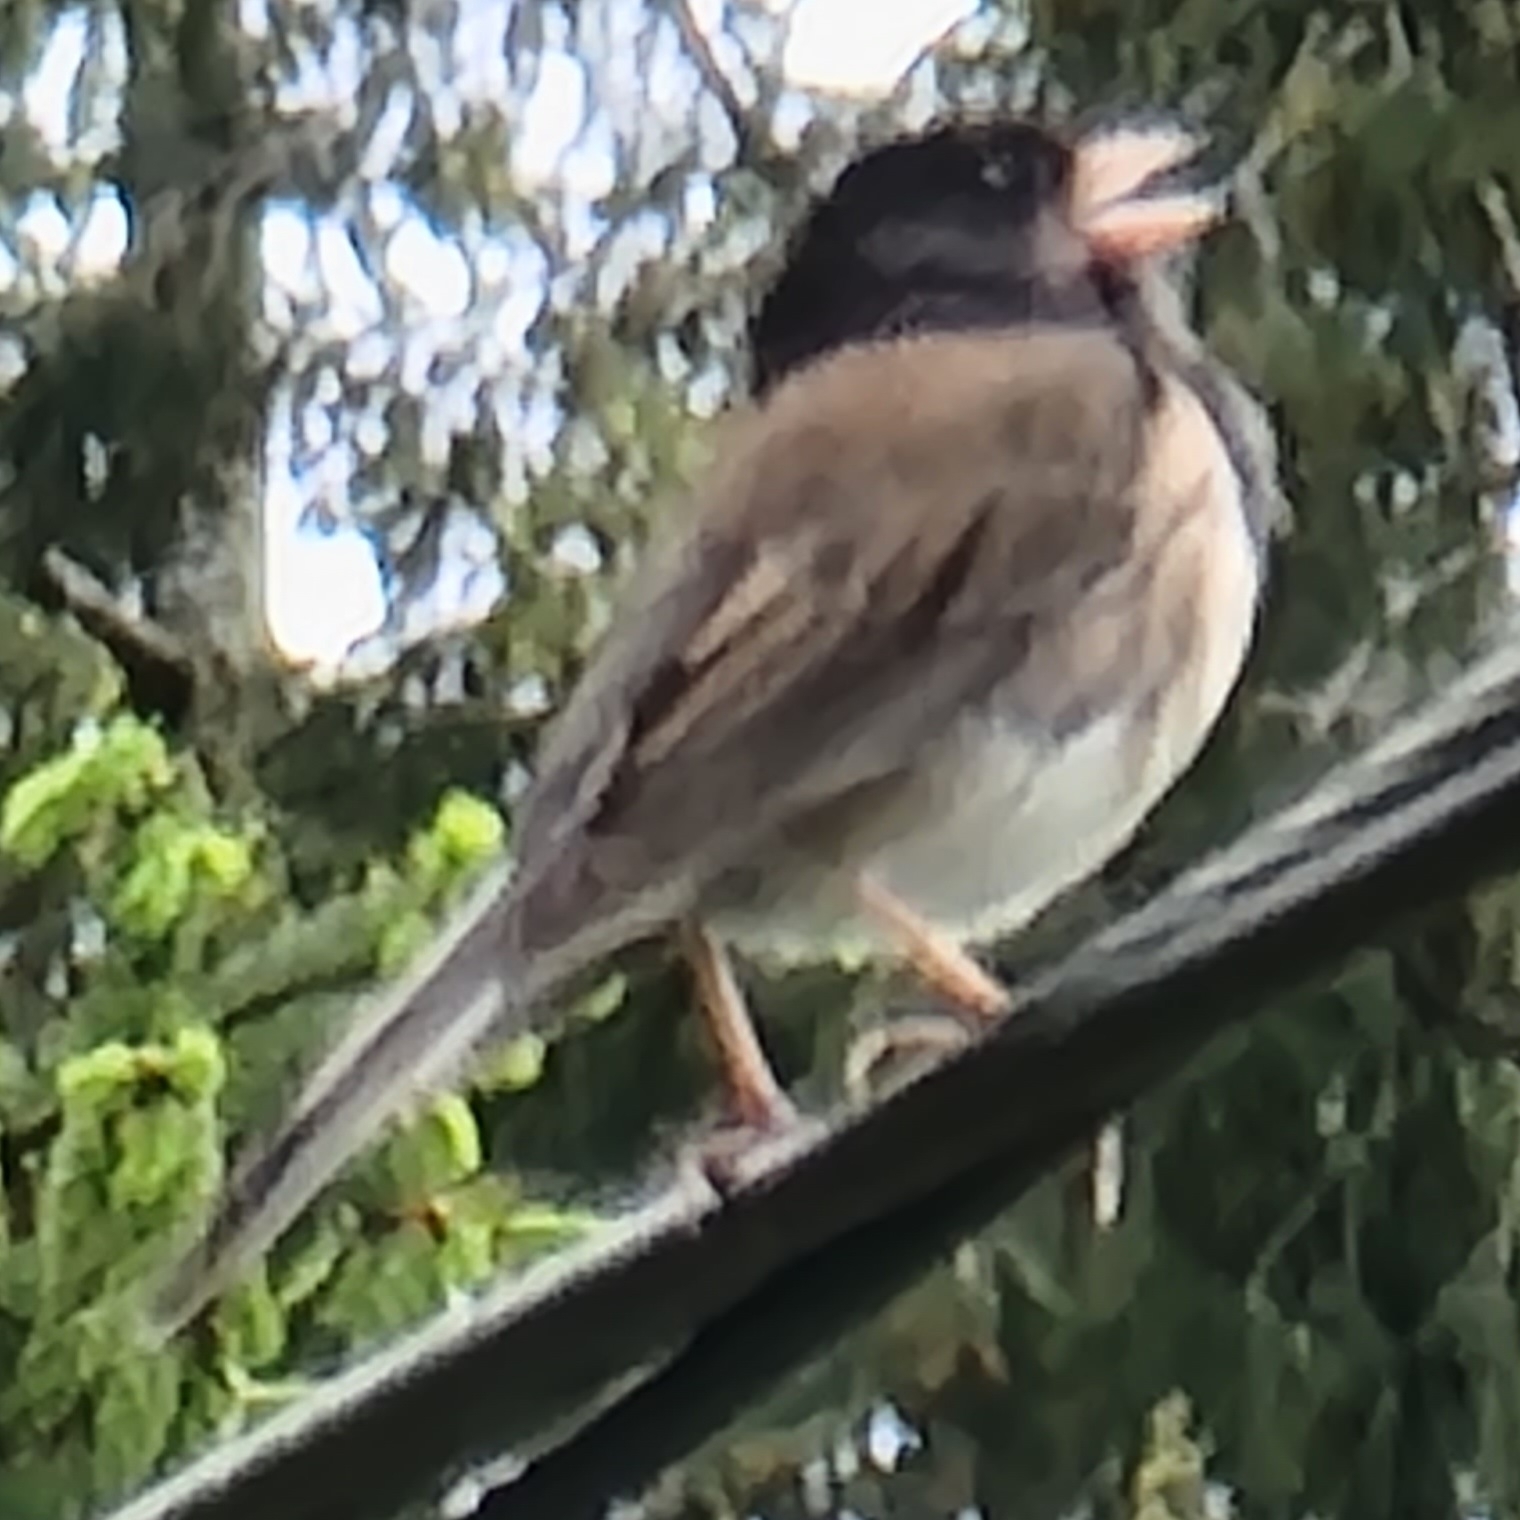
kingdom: Animalia
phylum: Chordata
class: Aves
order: Passeriformes
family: Passerellidae
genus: Junco
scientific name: Junco hyemalis
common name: Dark-eyed junco
